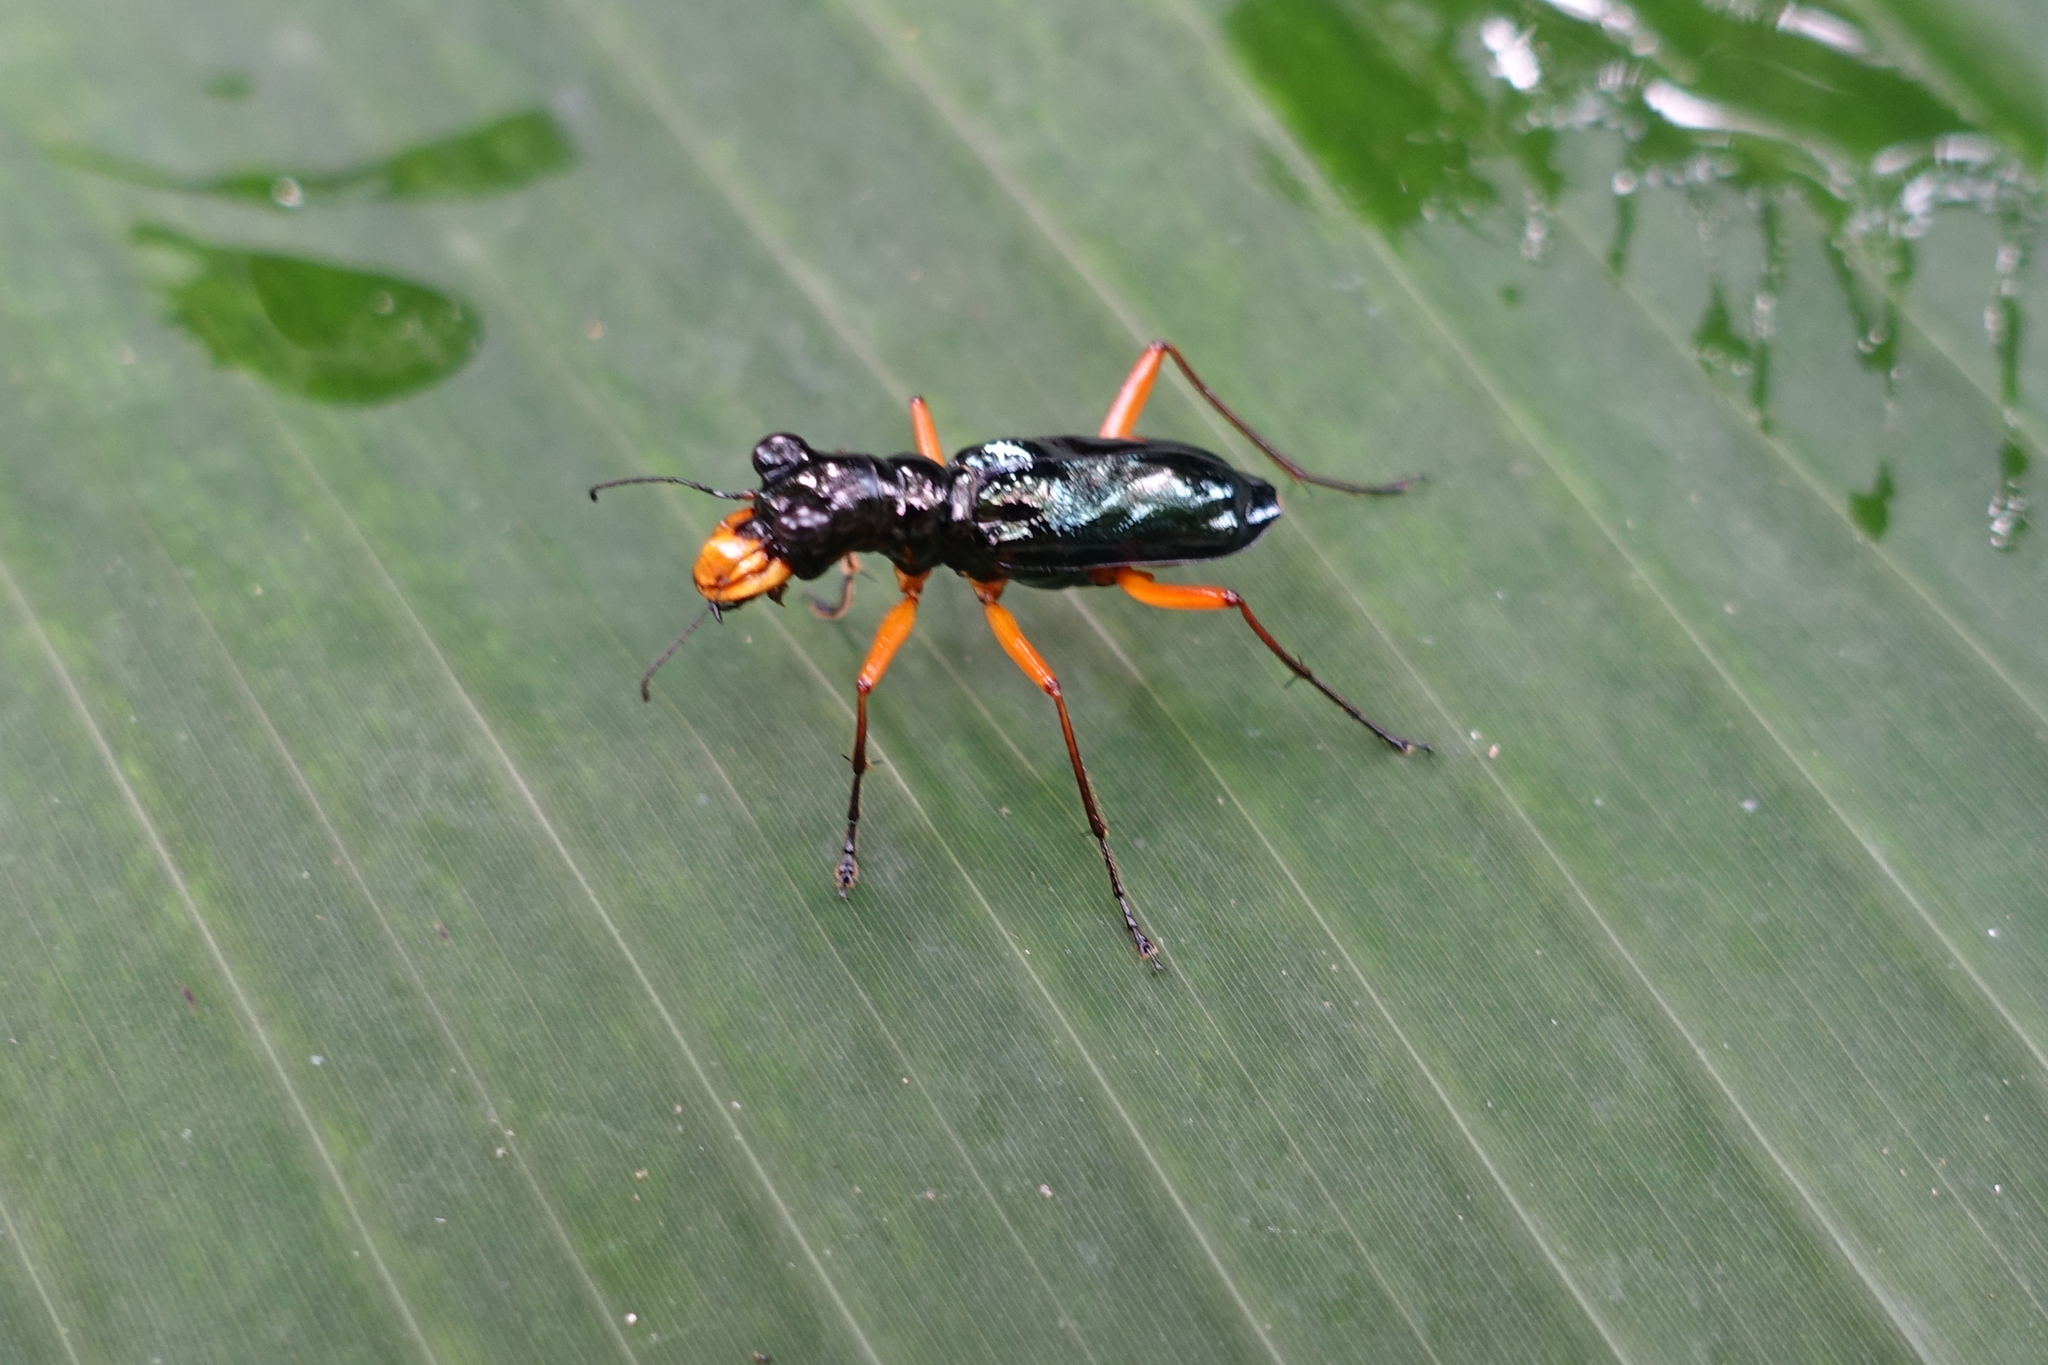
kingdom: Animalia
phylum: Arthropoda
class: Insecta
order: Coleoptera
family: Carabidae
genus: Therates
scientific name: Therates labiatus
